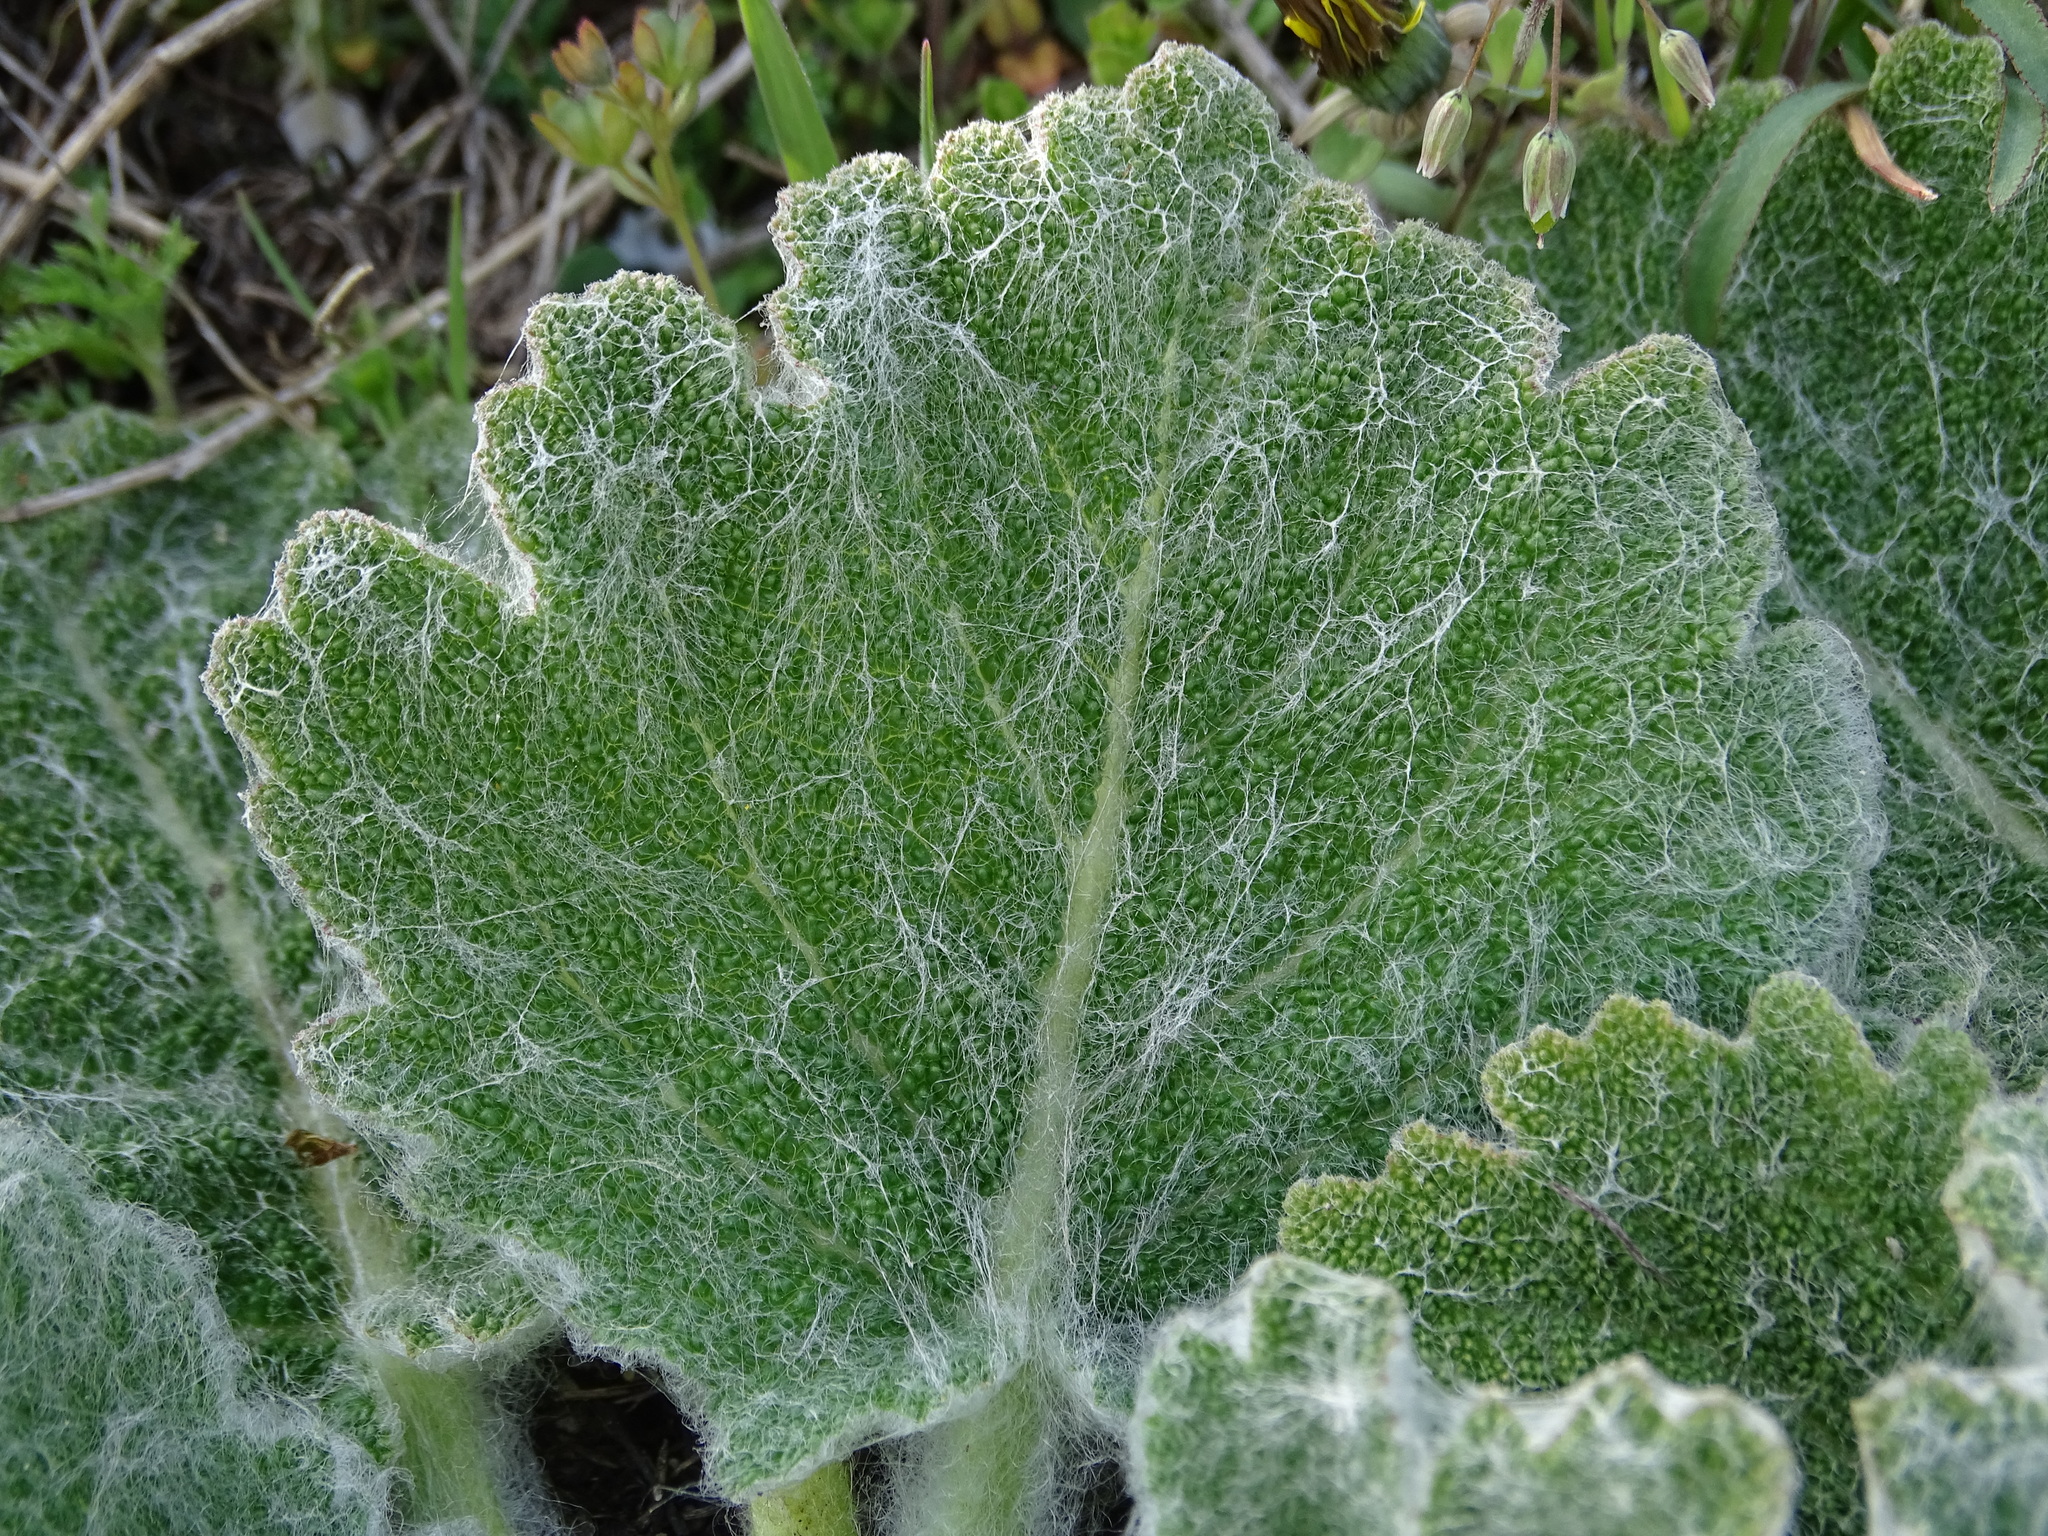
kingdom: Plantae
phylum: Tracheophyta
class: Magnoliopsida
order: Lamiales
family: Lamiaceae
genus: Salvia
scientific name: Salvia aethiopis
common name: Mediterranean sage
